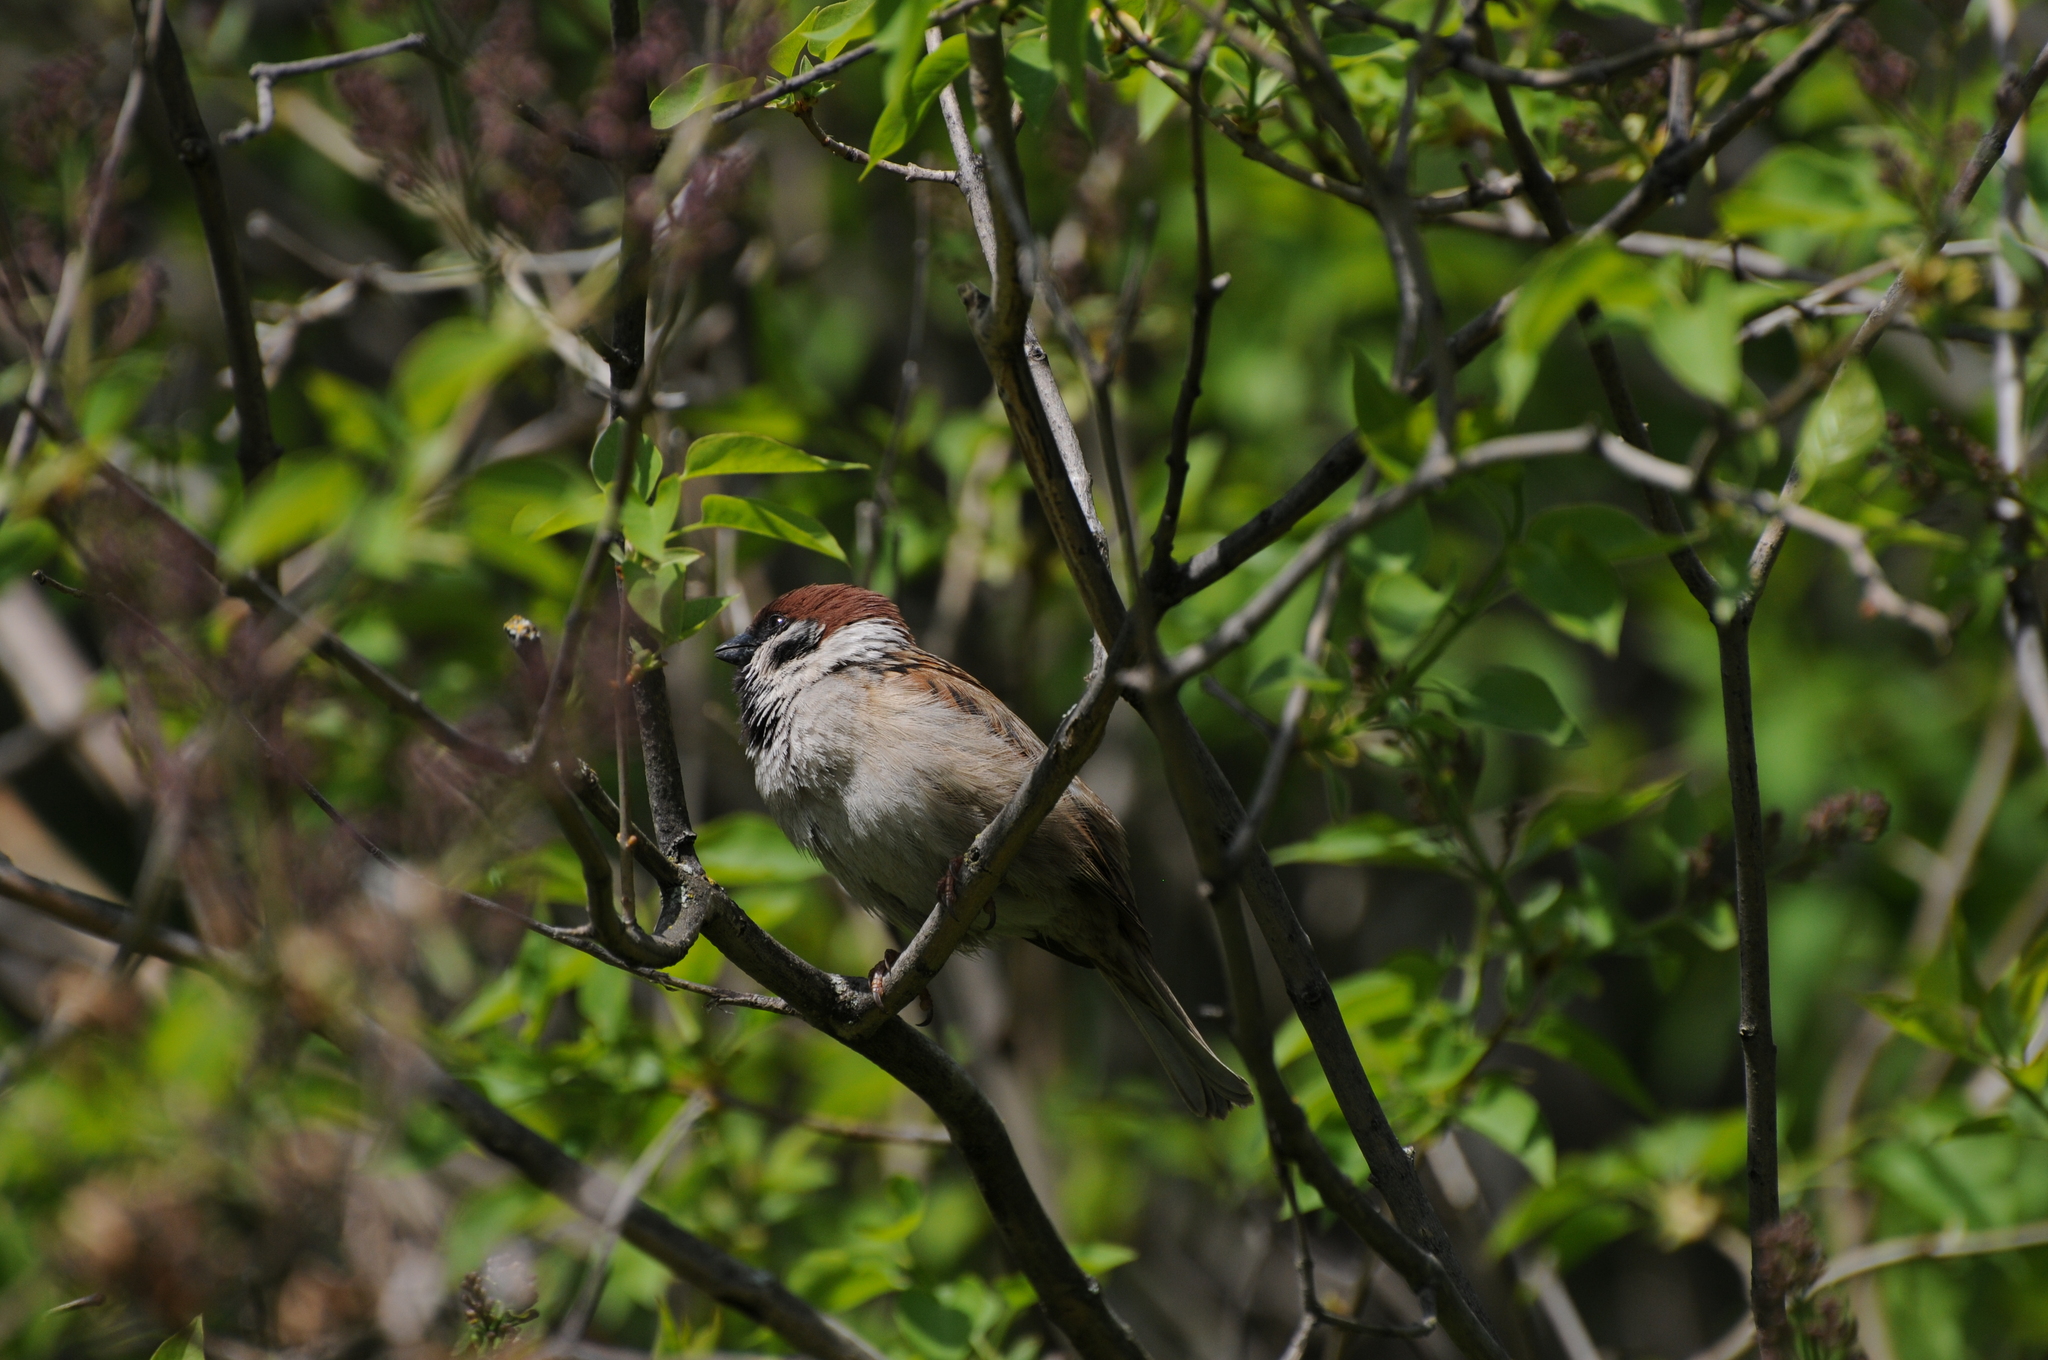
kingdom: Animalia
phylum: Chordata
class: Aves
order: Passeriformes
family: Passeridae
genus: Passer
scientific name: Passer montanus
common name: Eurasian tree sparrow
